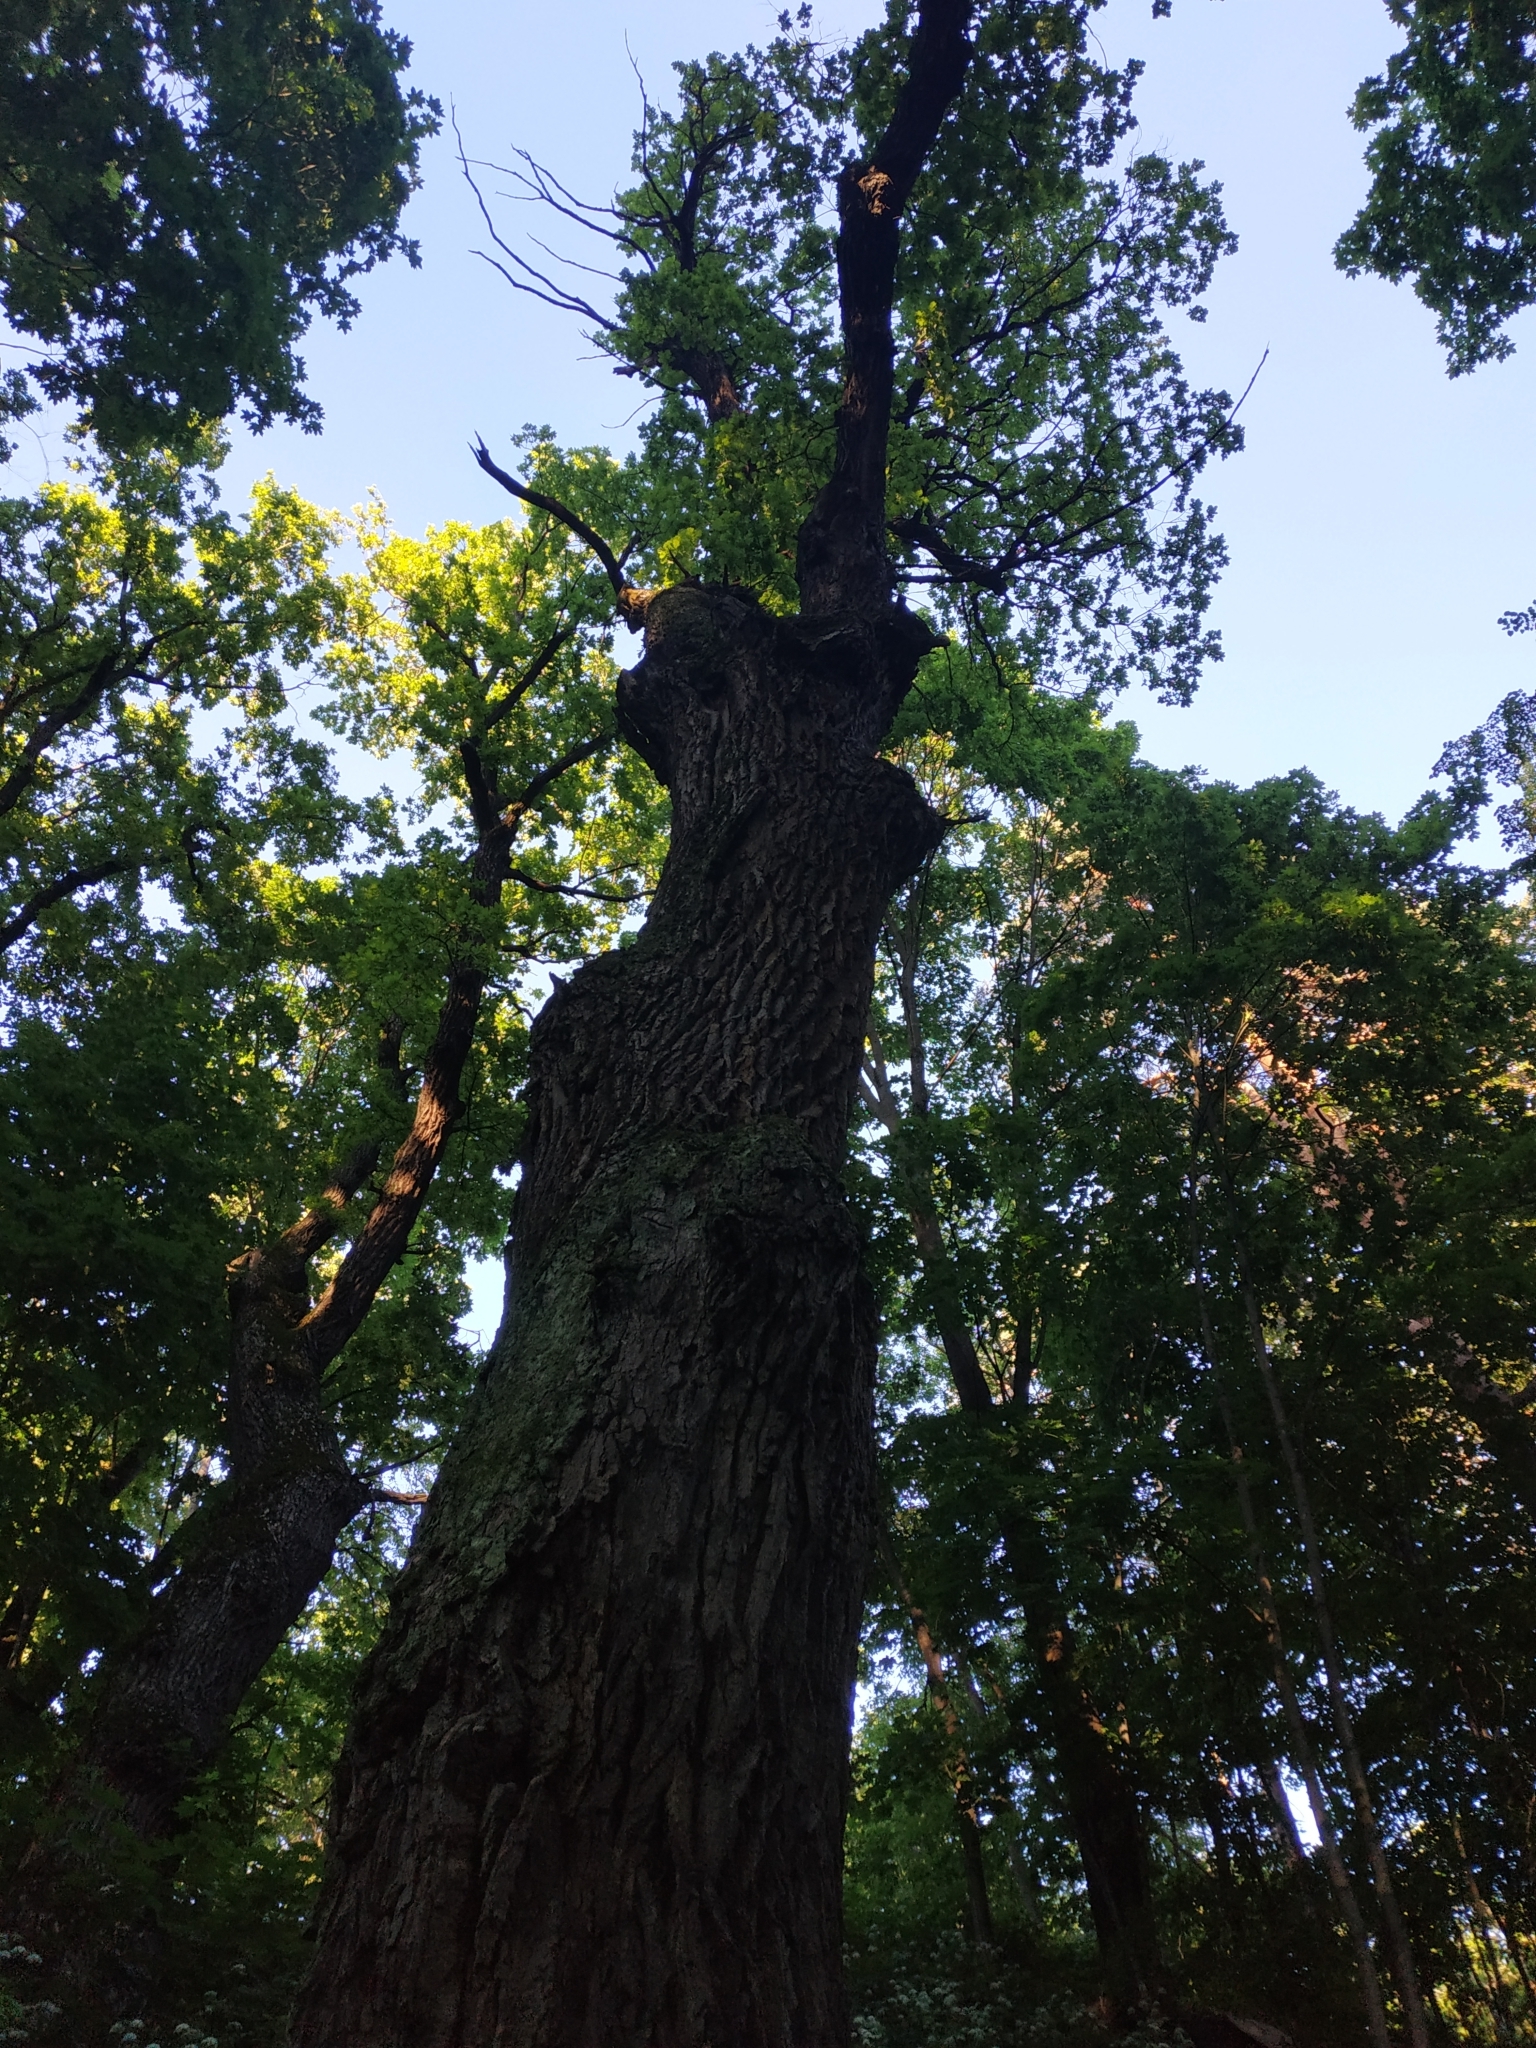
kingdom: Plantae
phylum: Tracheophyta
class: Magnoliopsida
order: Fagales
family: Fagaceae
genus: Quercus
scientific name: Quercus robur
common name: Pedunculate oak
